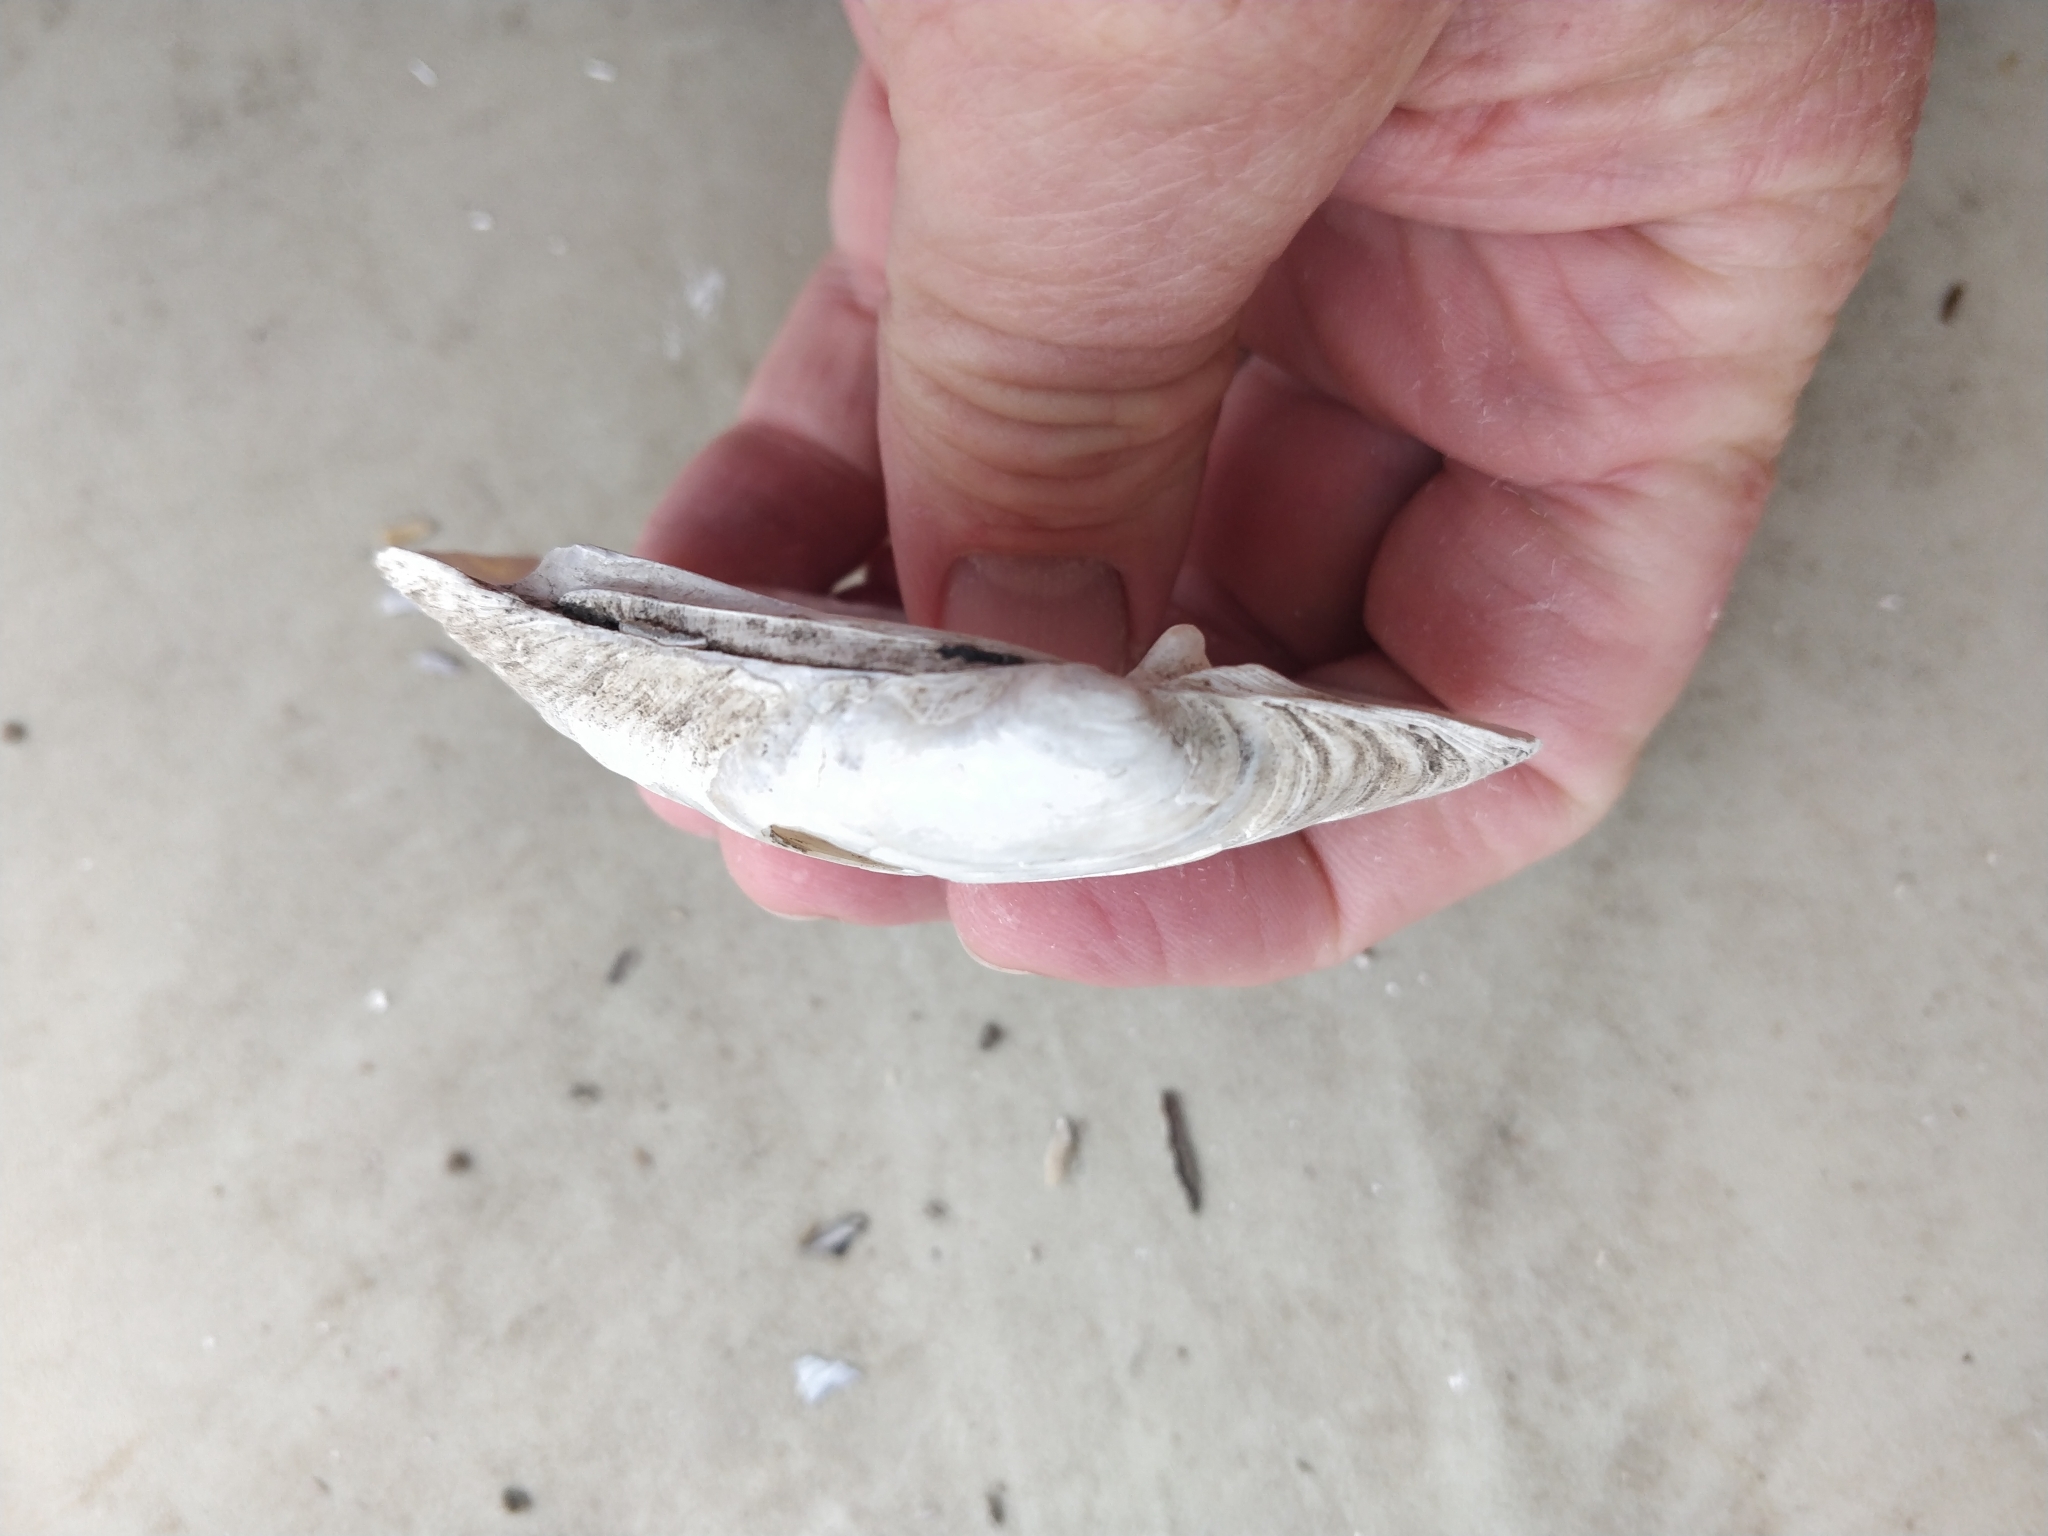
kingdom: Animalia
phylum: Mollusca
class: Bivalvia
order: Unionida
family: Unionidae
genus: Lampsilis
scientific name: Lampsilis cardium
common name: Plain pocketbook
